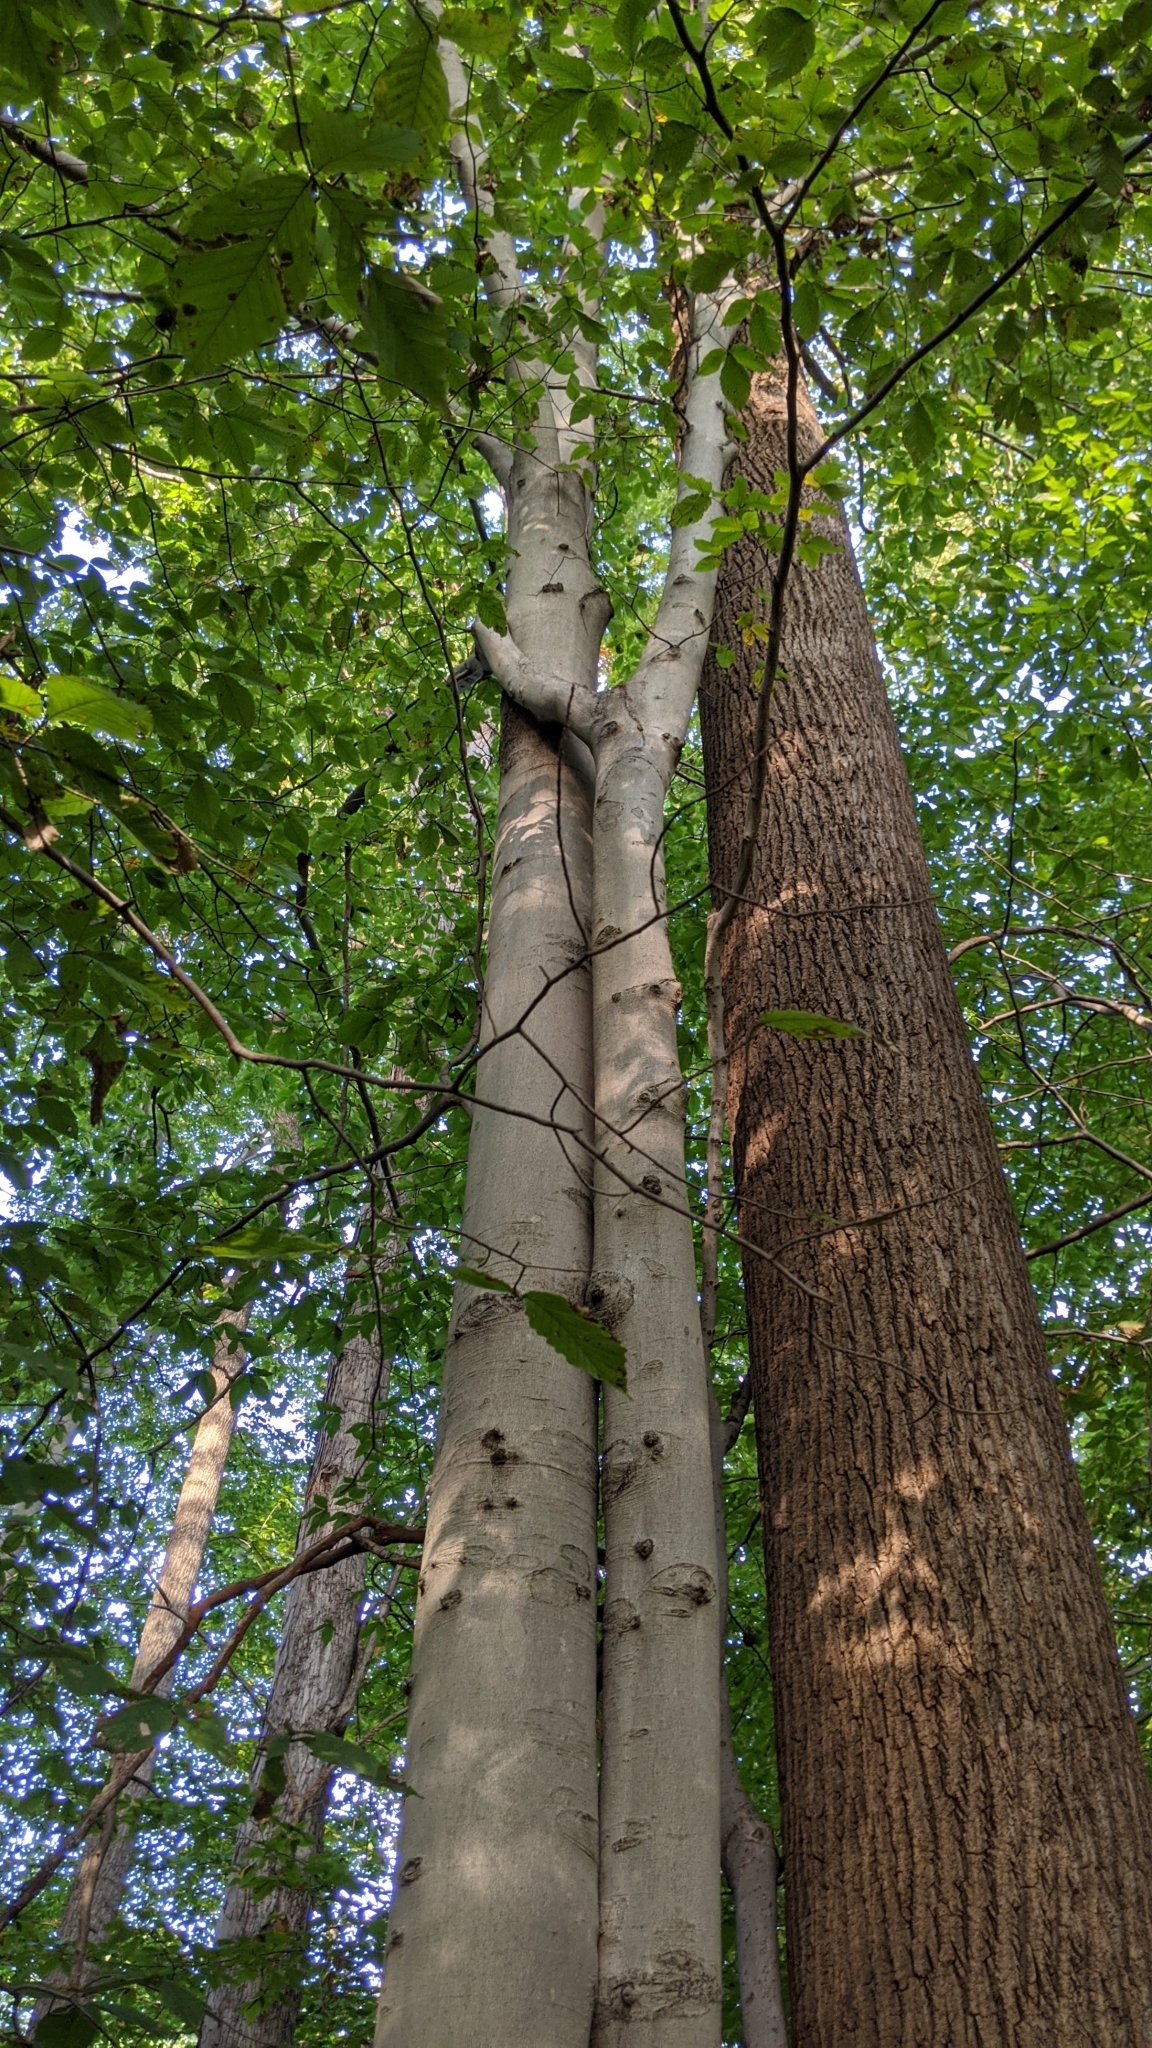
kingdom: Plantae
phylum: Tracheophyta
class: Magnoliopsida
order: Fagales
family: Fagaceae
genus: Fagus
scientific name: Fagus grandifolia
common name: American beech
